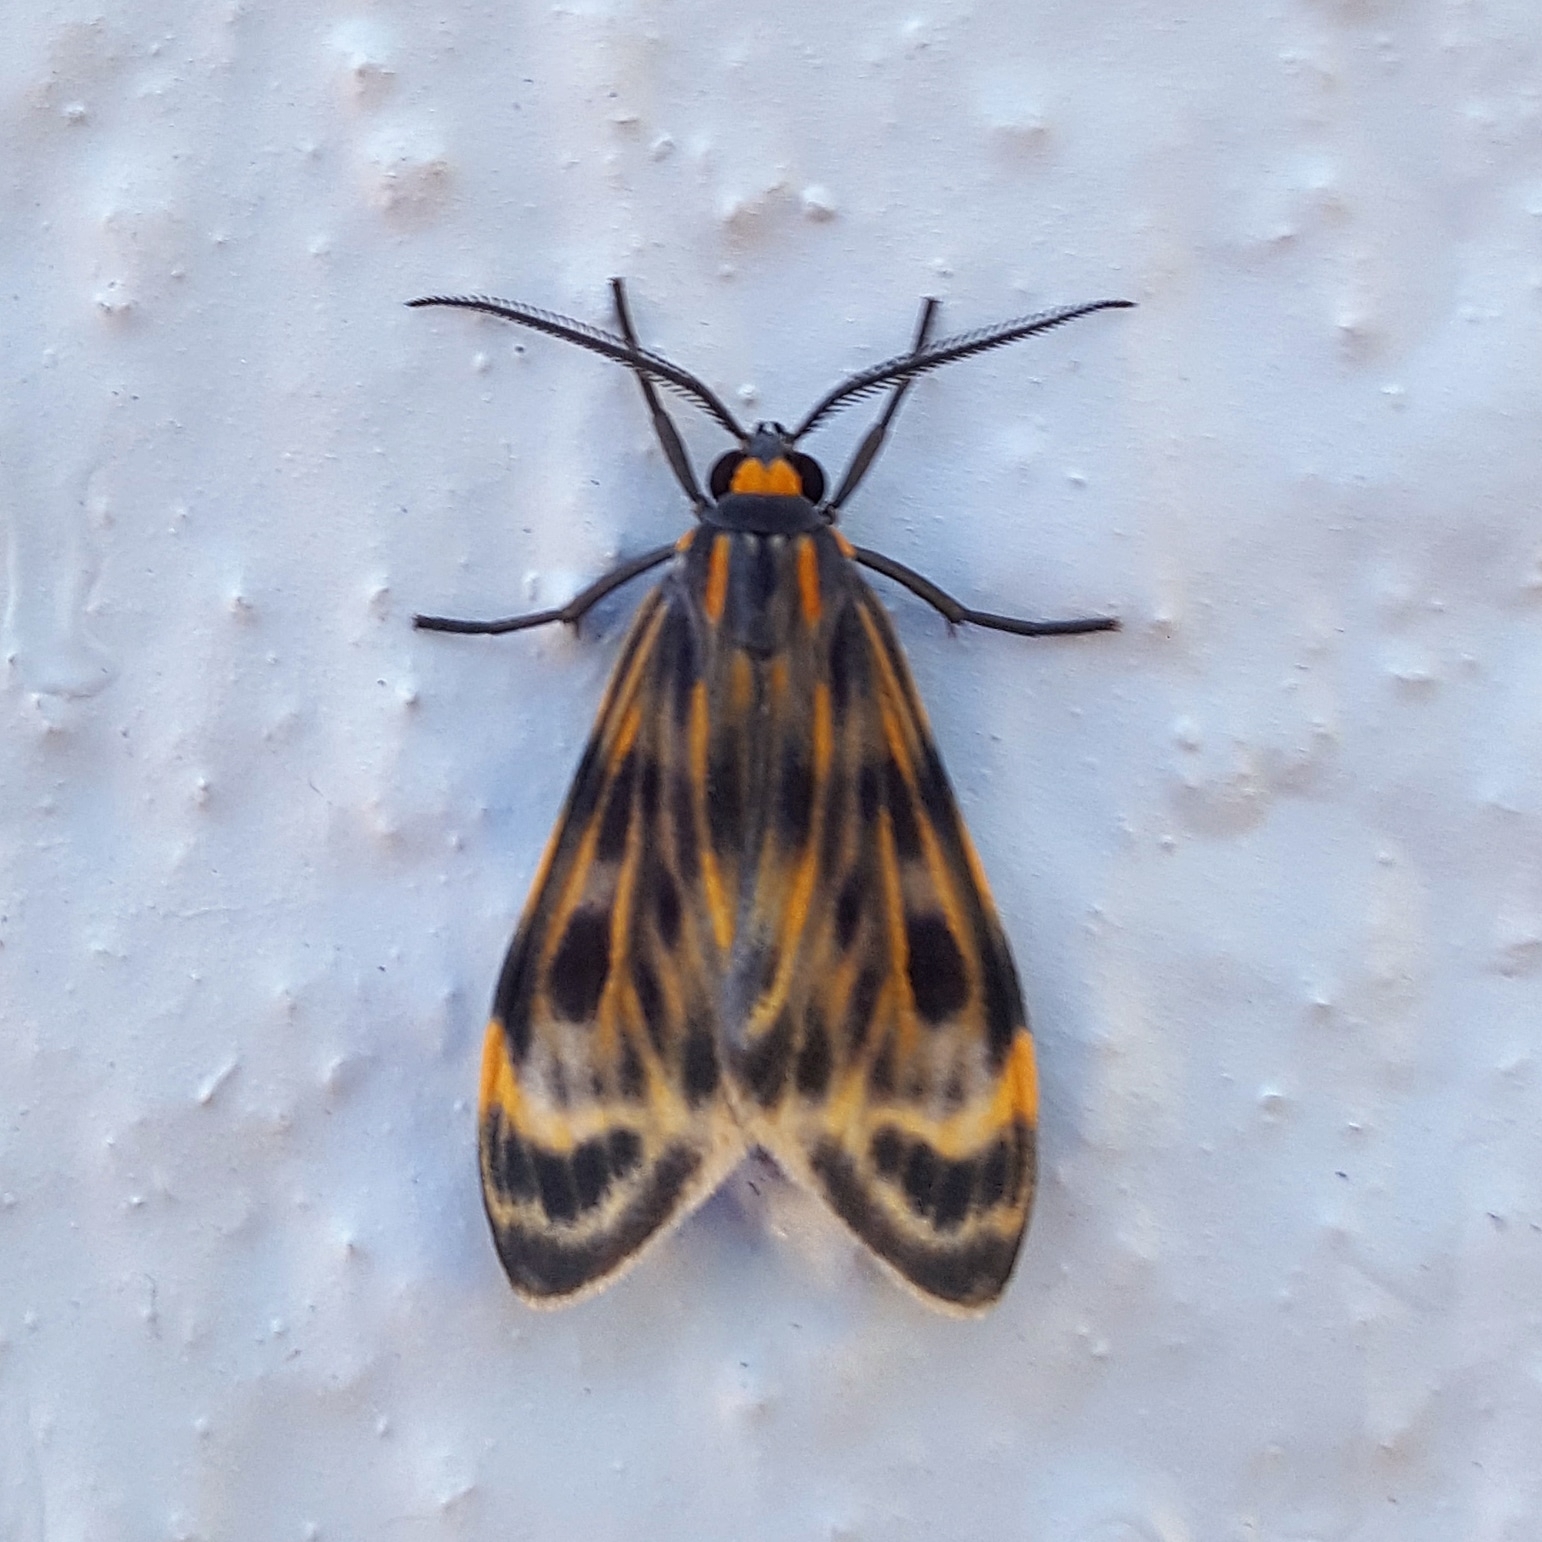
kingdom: Animalia
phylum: Arthropoda
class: Insecta
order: Lepidoptera
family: Erebidae
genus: Eucereon
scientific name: Eucereon phaeoproctum
